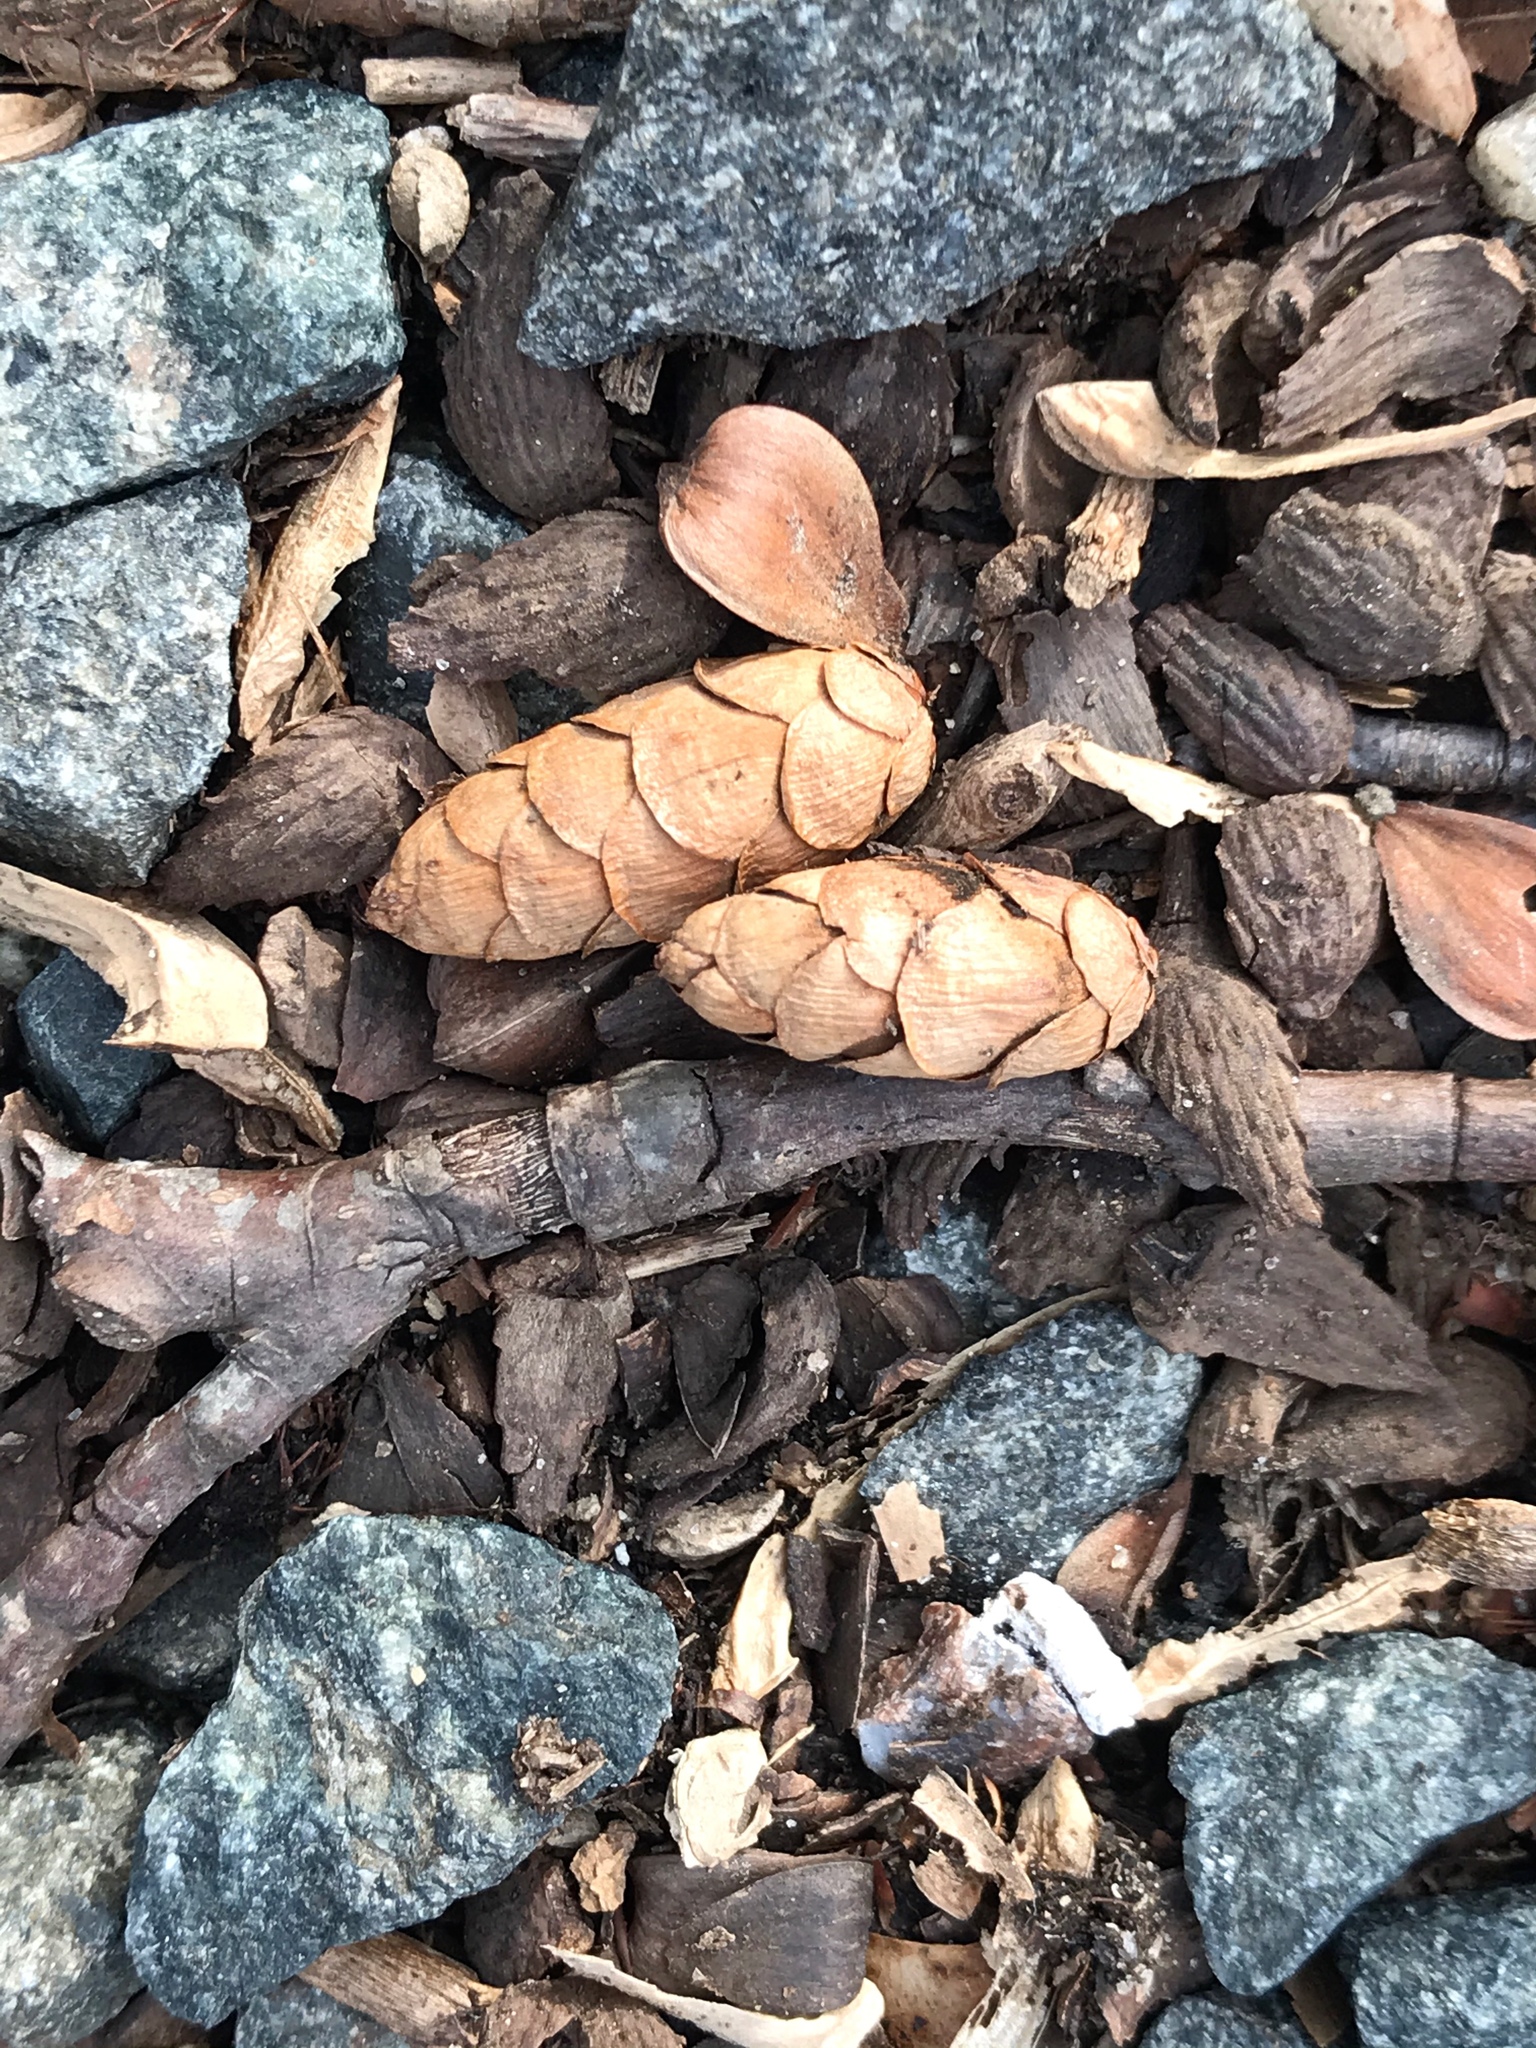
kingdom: Plantae
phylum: Tracheophyta
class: Pinopsida
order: Pinales
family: Pinaceae
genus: Tsuga
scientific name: Tsuga canadensis
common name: Eastern hemlock
